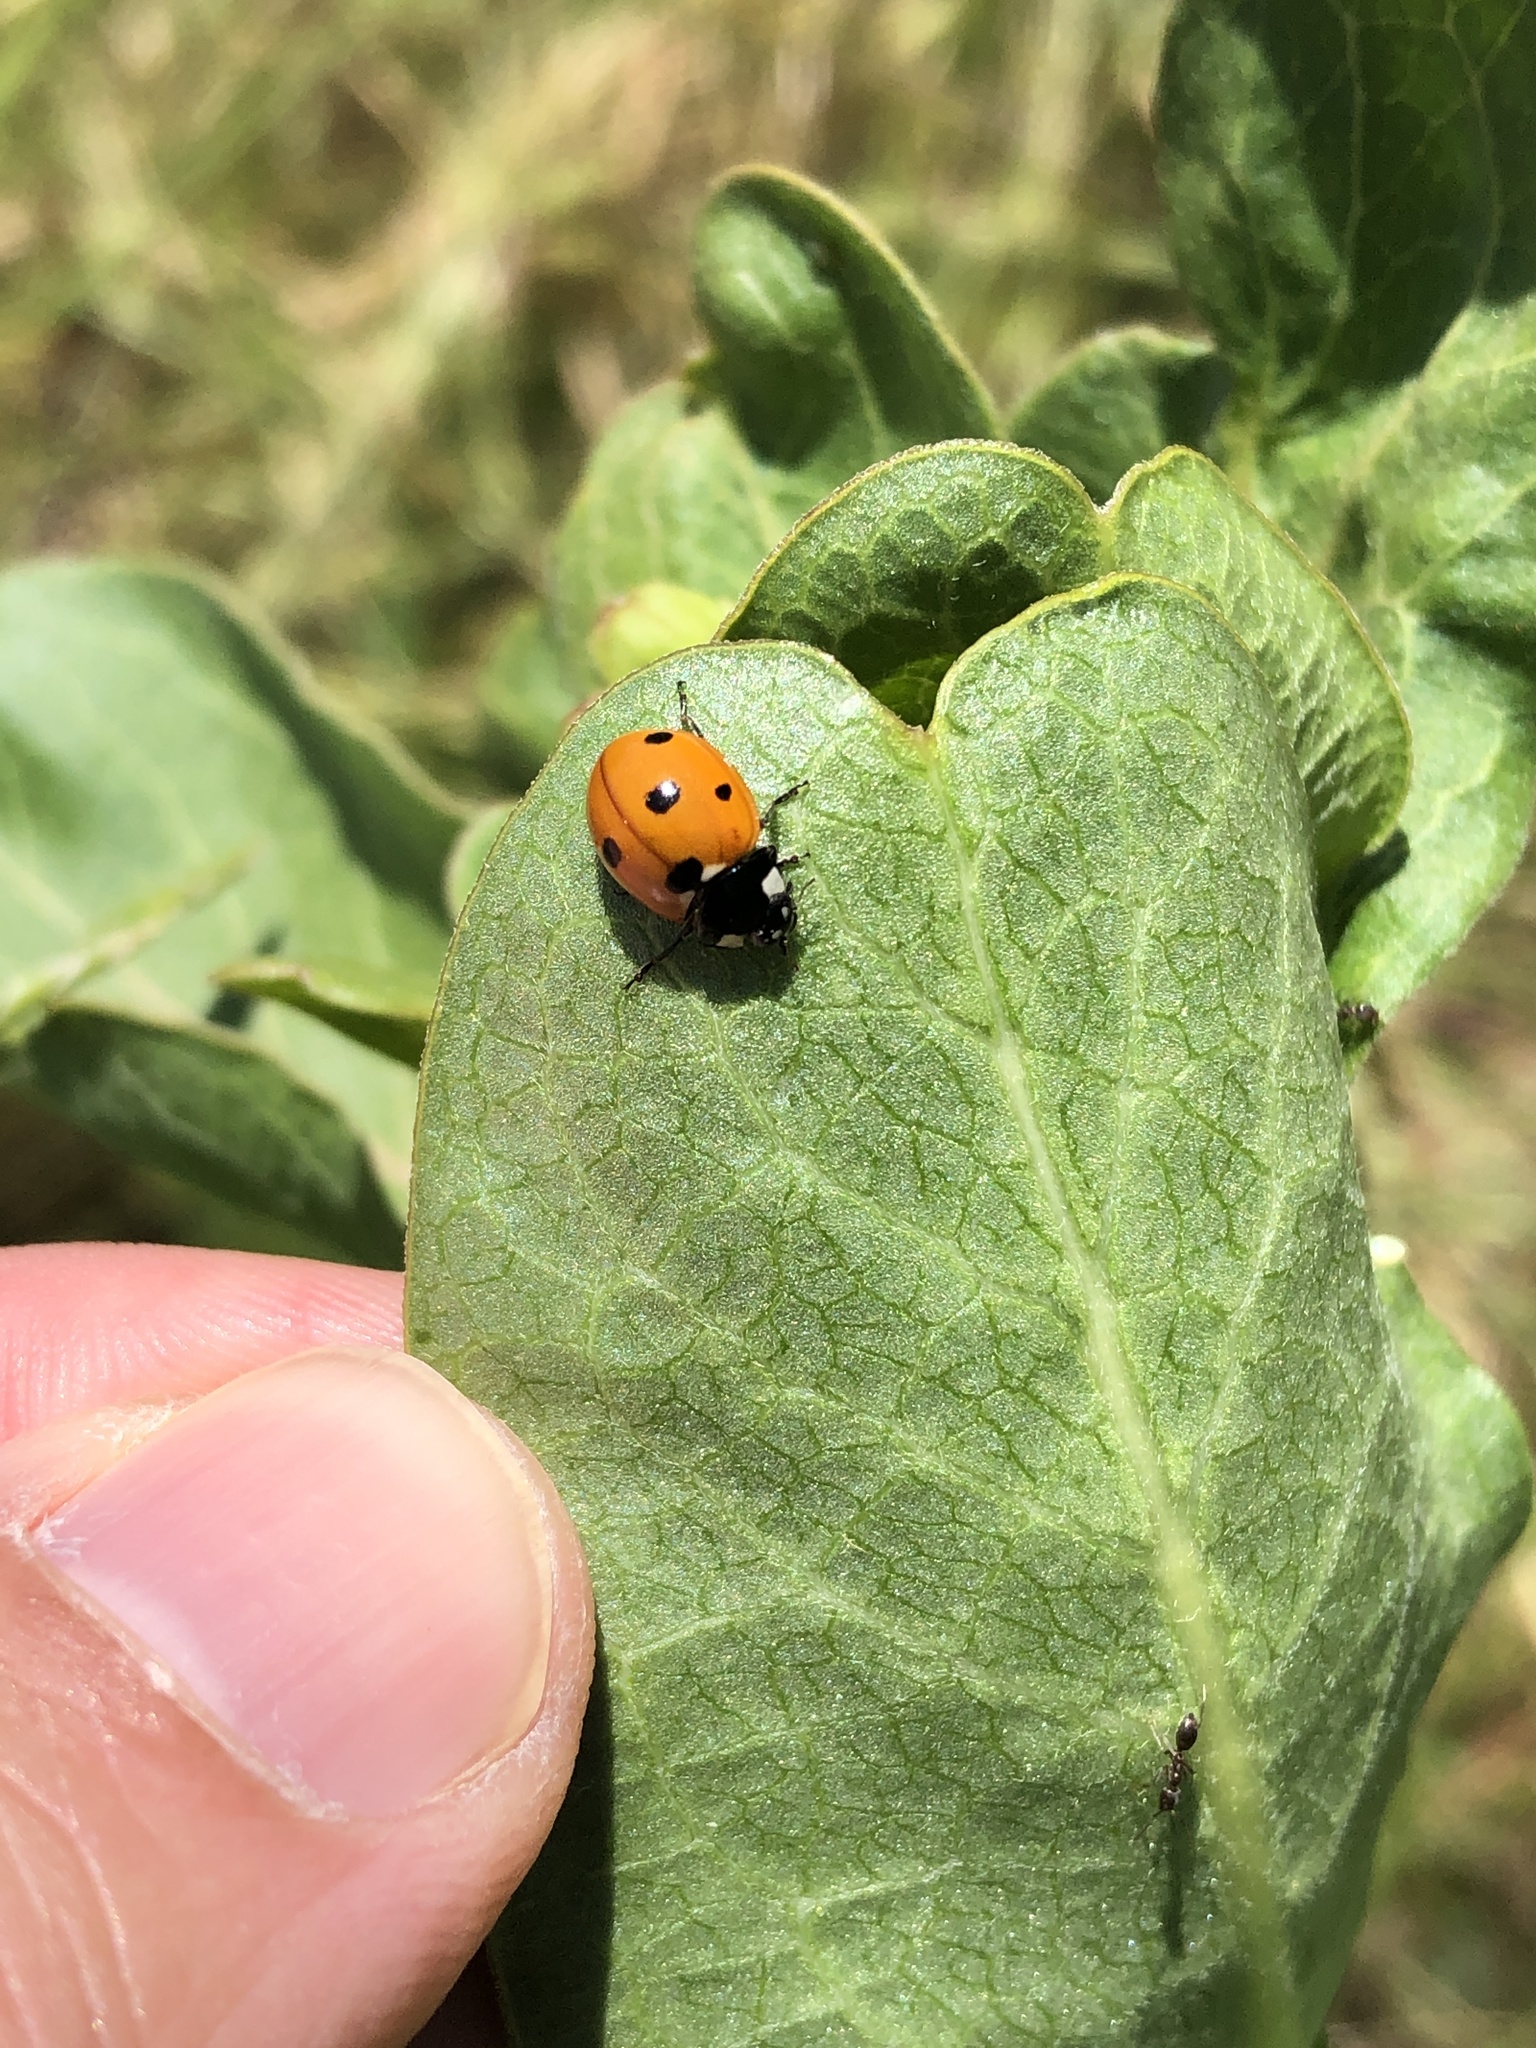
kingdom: Animalia
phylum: Arthropoda
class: Insecta
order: Coleoptera
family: Coccinellidae
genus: Coccinella
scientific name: Coccinella septempunctata
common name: Sevenspotted lady beetle
